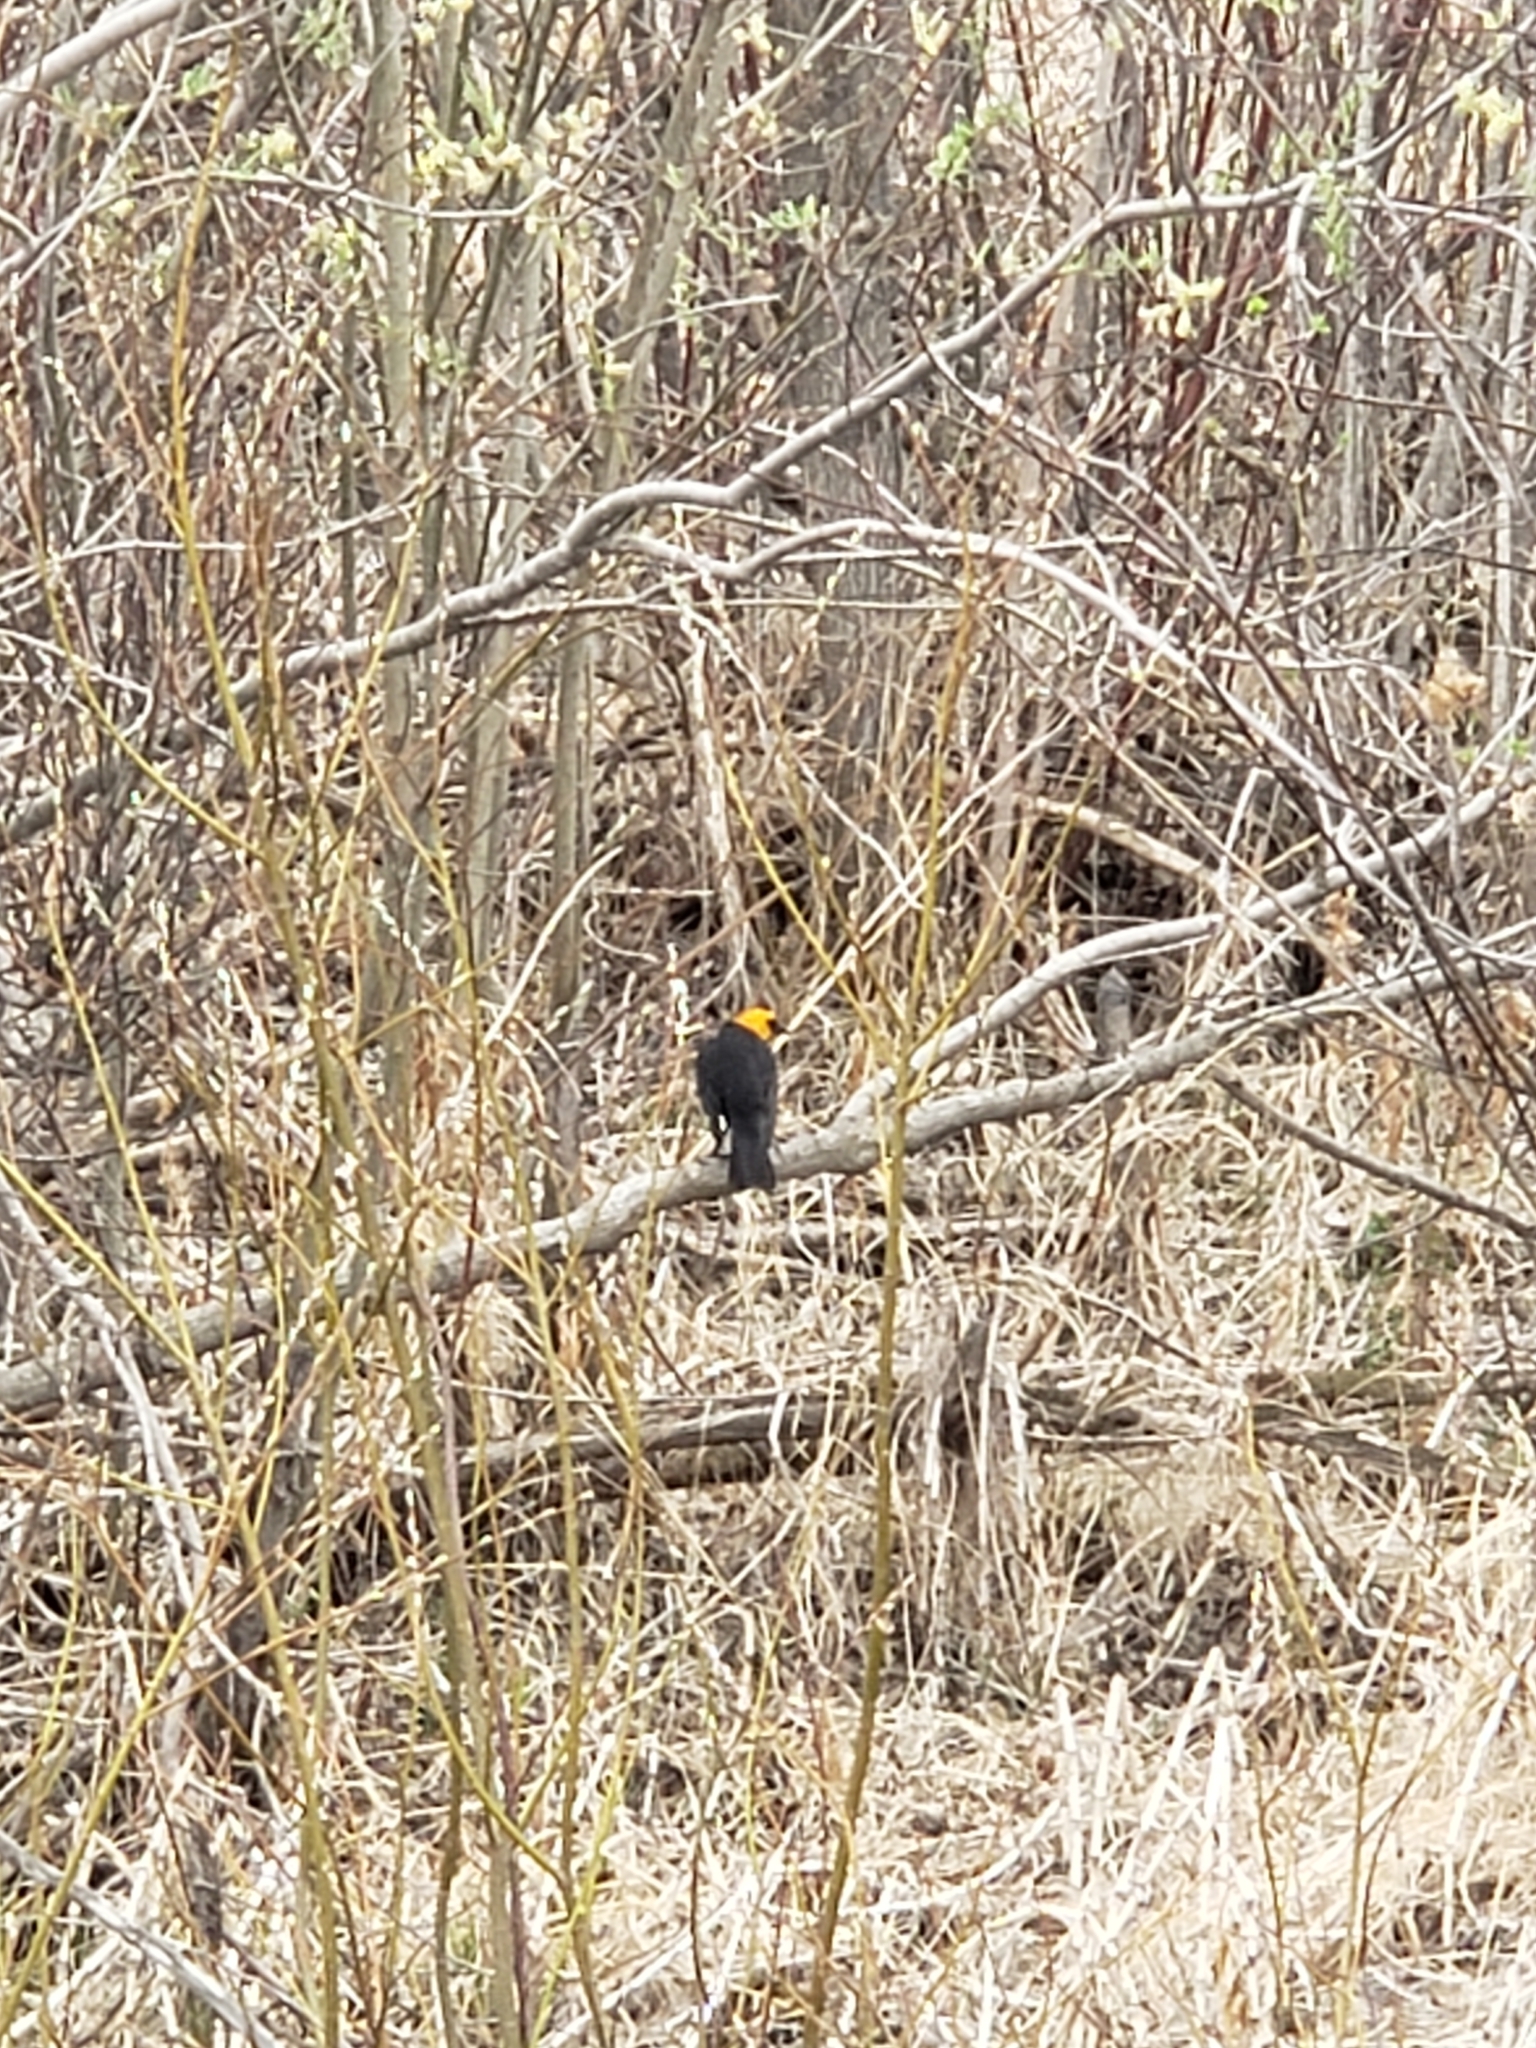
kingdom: Animalia
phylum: Chordata
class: Aves
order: Passeriformes
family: Icteridae
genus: Xanthocephalus
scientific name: Xanthocephalus xanthocephalus
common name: Yellow-headed blackbird
